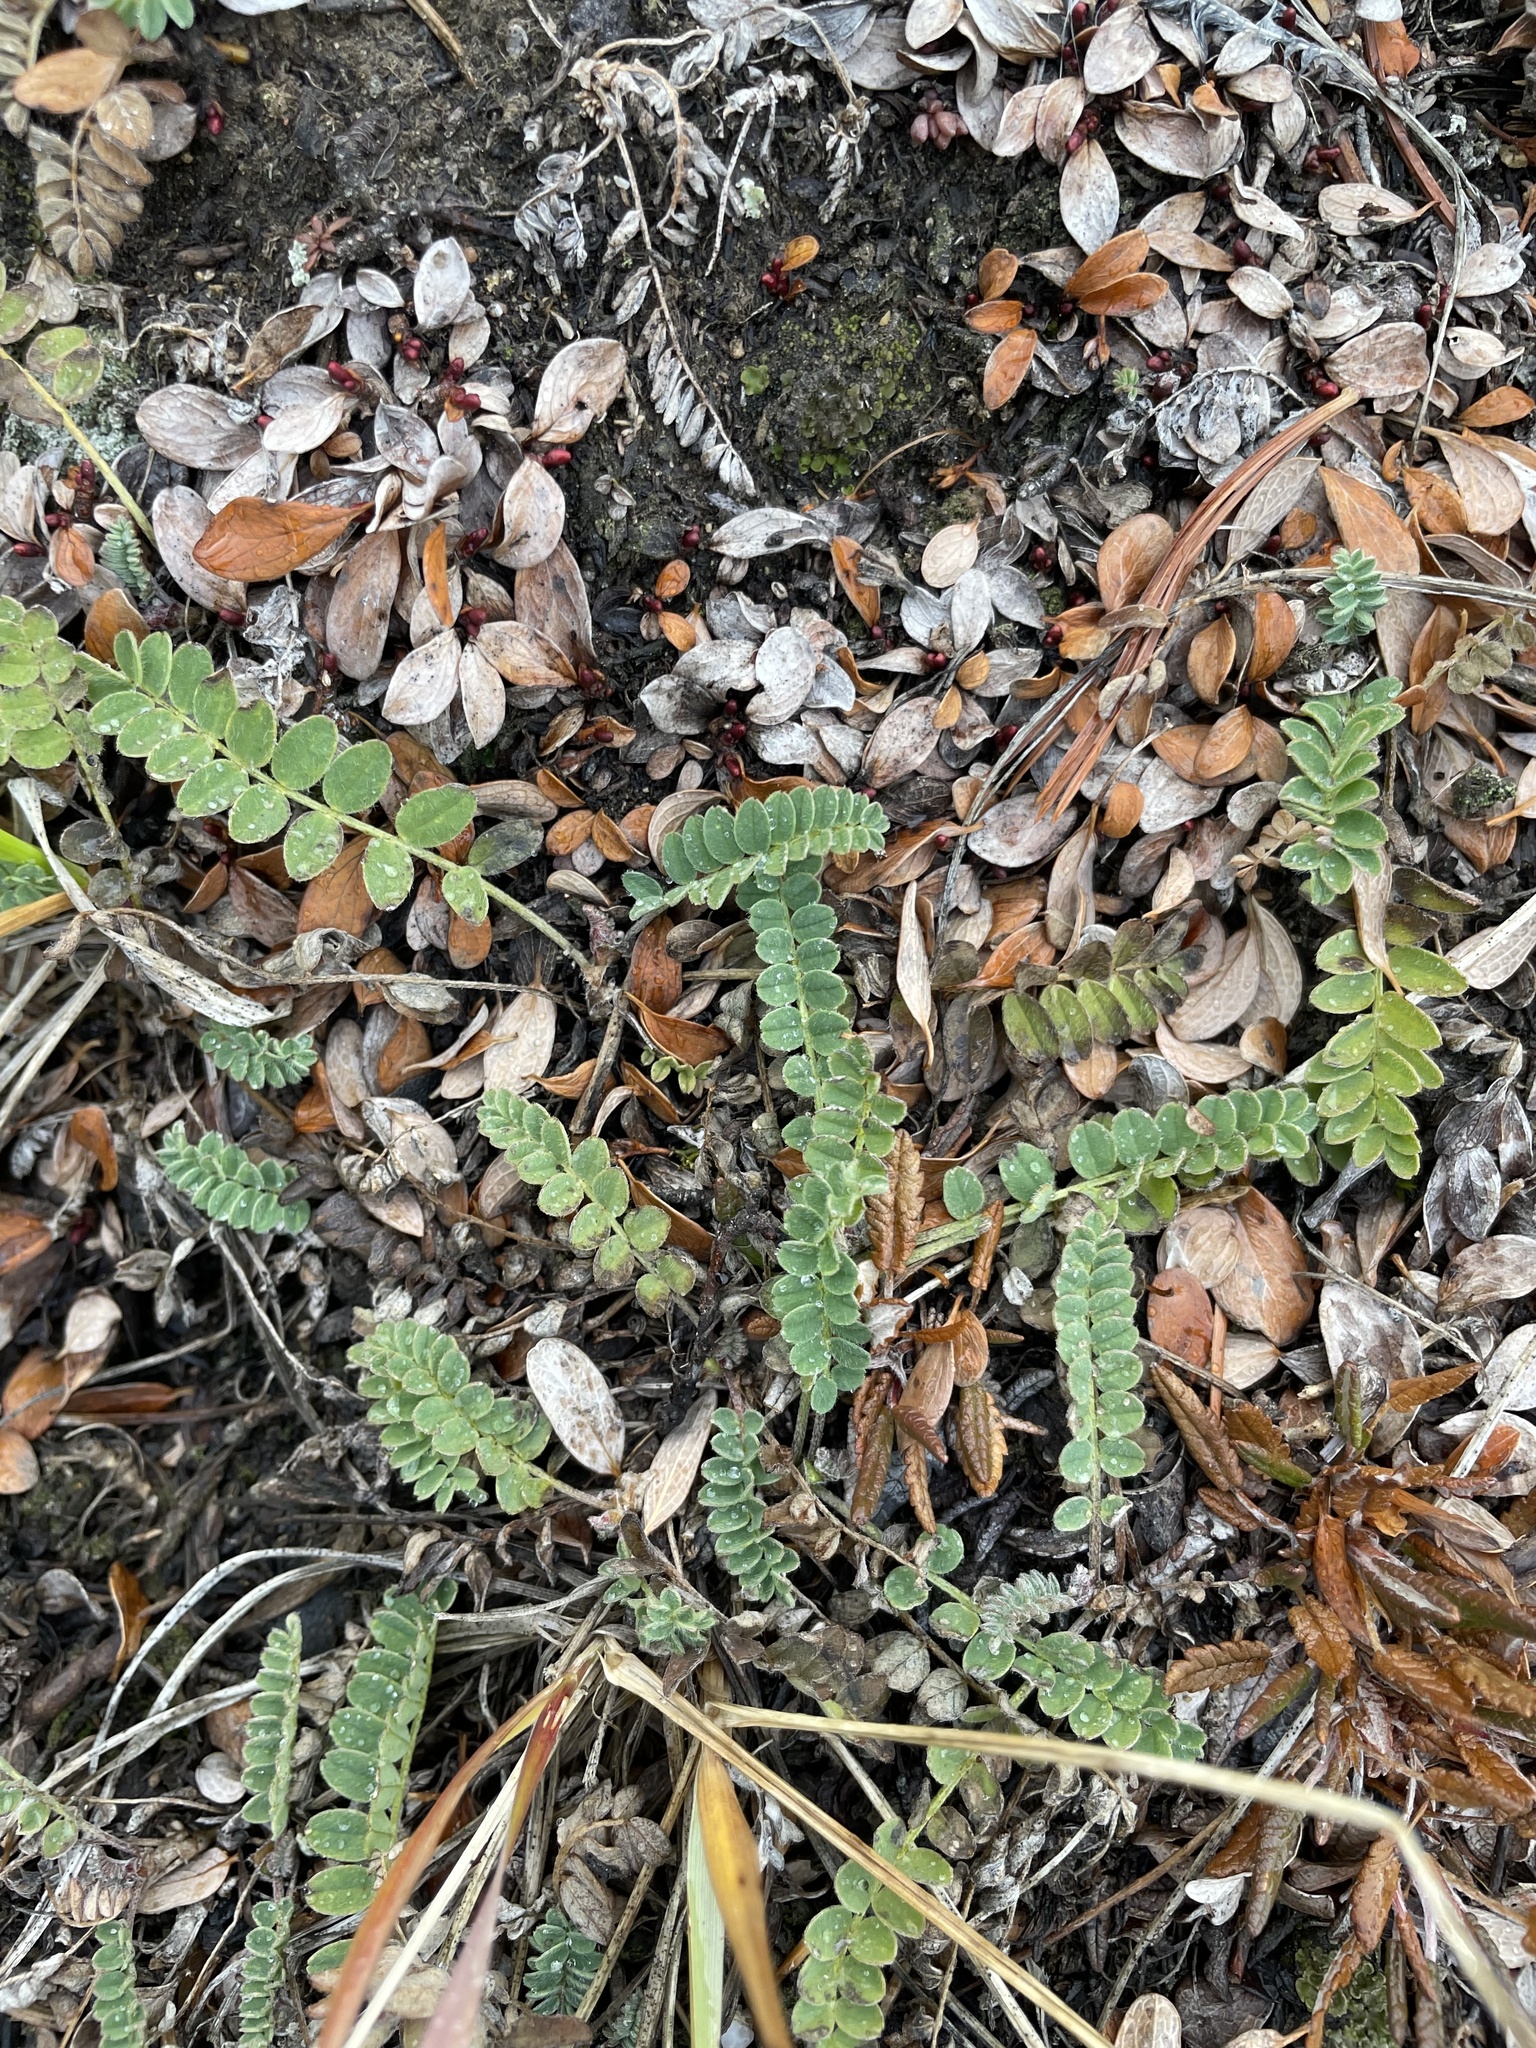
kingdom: Plantae
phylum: Tracheophyta
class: Magnoliopsida
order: Fabales
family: Fabaceae
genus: Astragalus
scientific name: Astragalus alpinus
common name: Alpine milk-vetch
